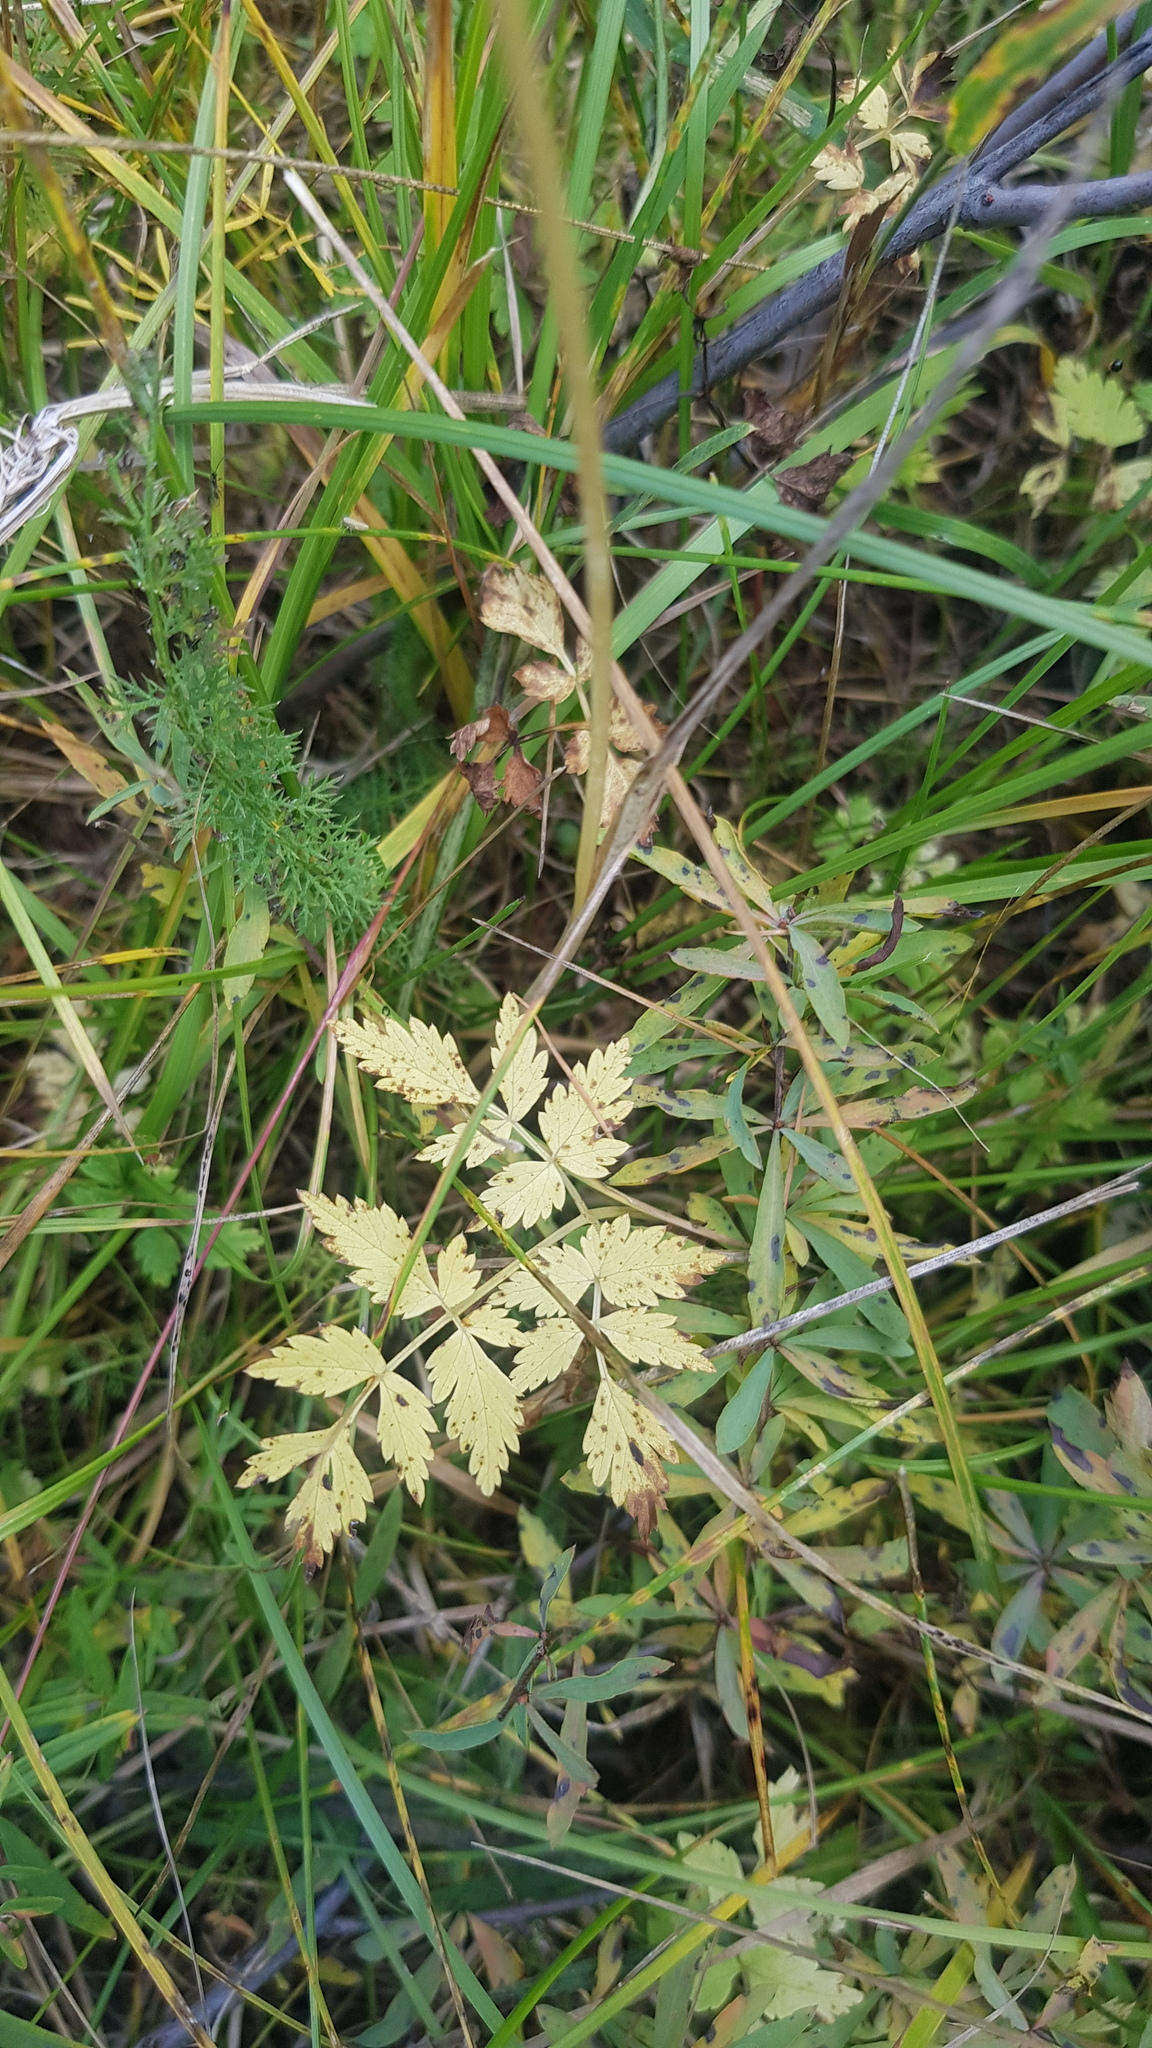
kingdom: Plantae
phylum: Tracheophyta
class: Magnoliopsida
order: Apiales
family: Apiaceae
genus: Aegopodium
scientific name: Aegopodium alpestre
